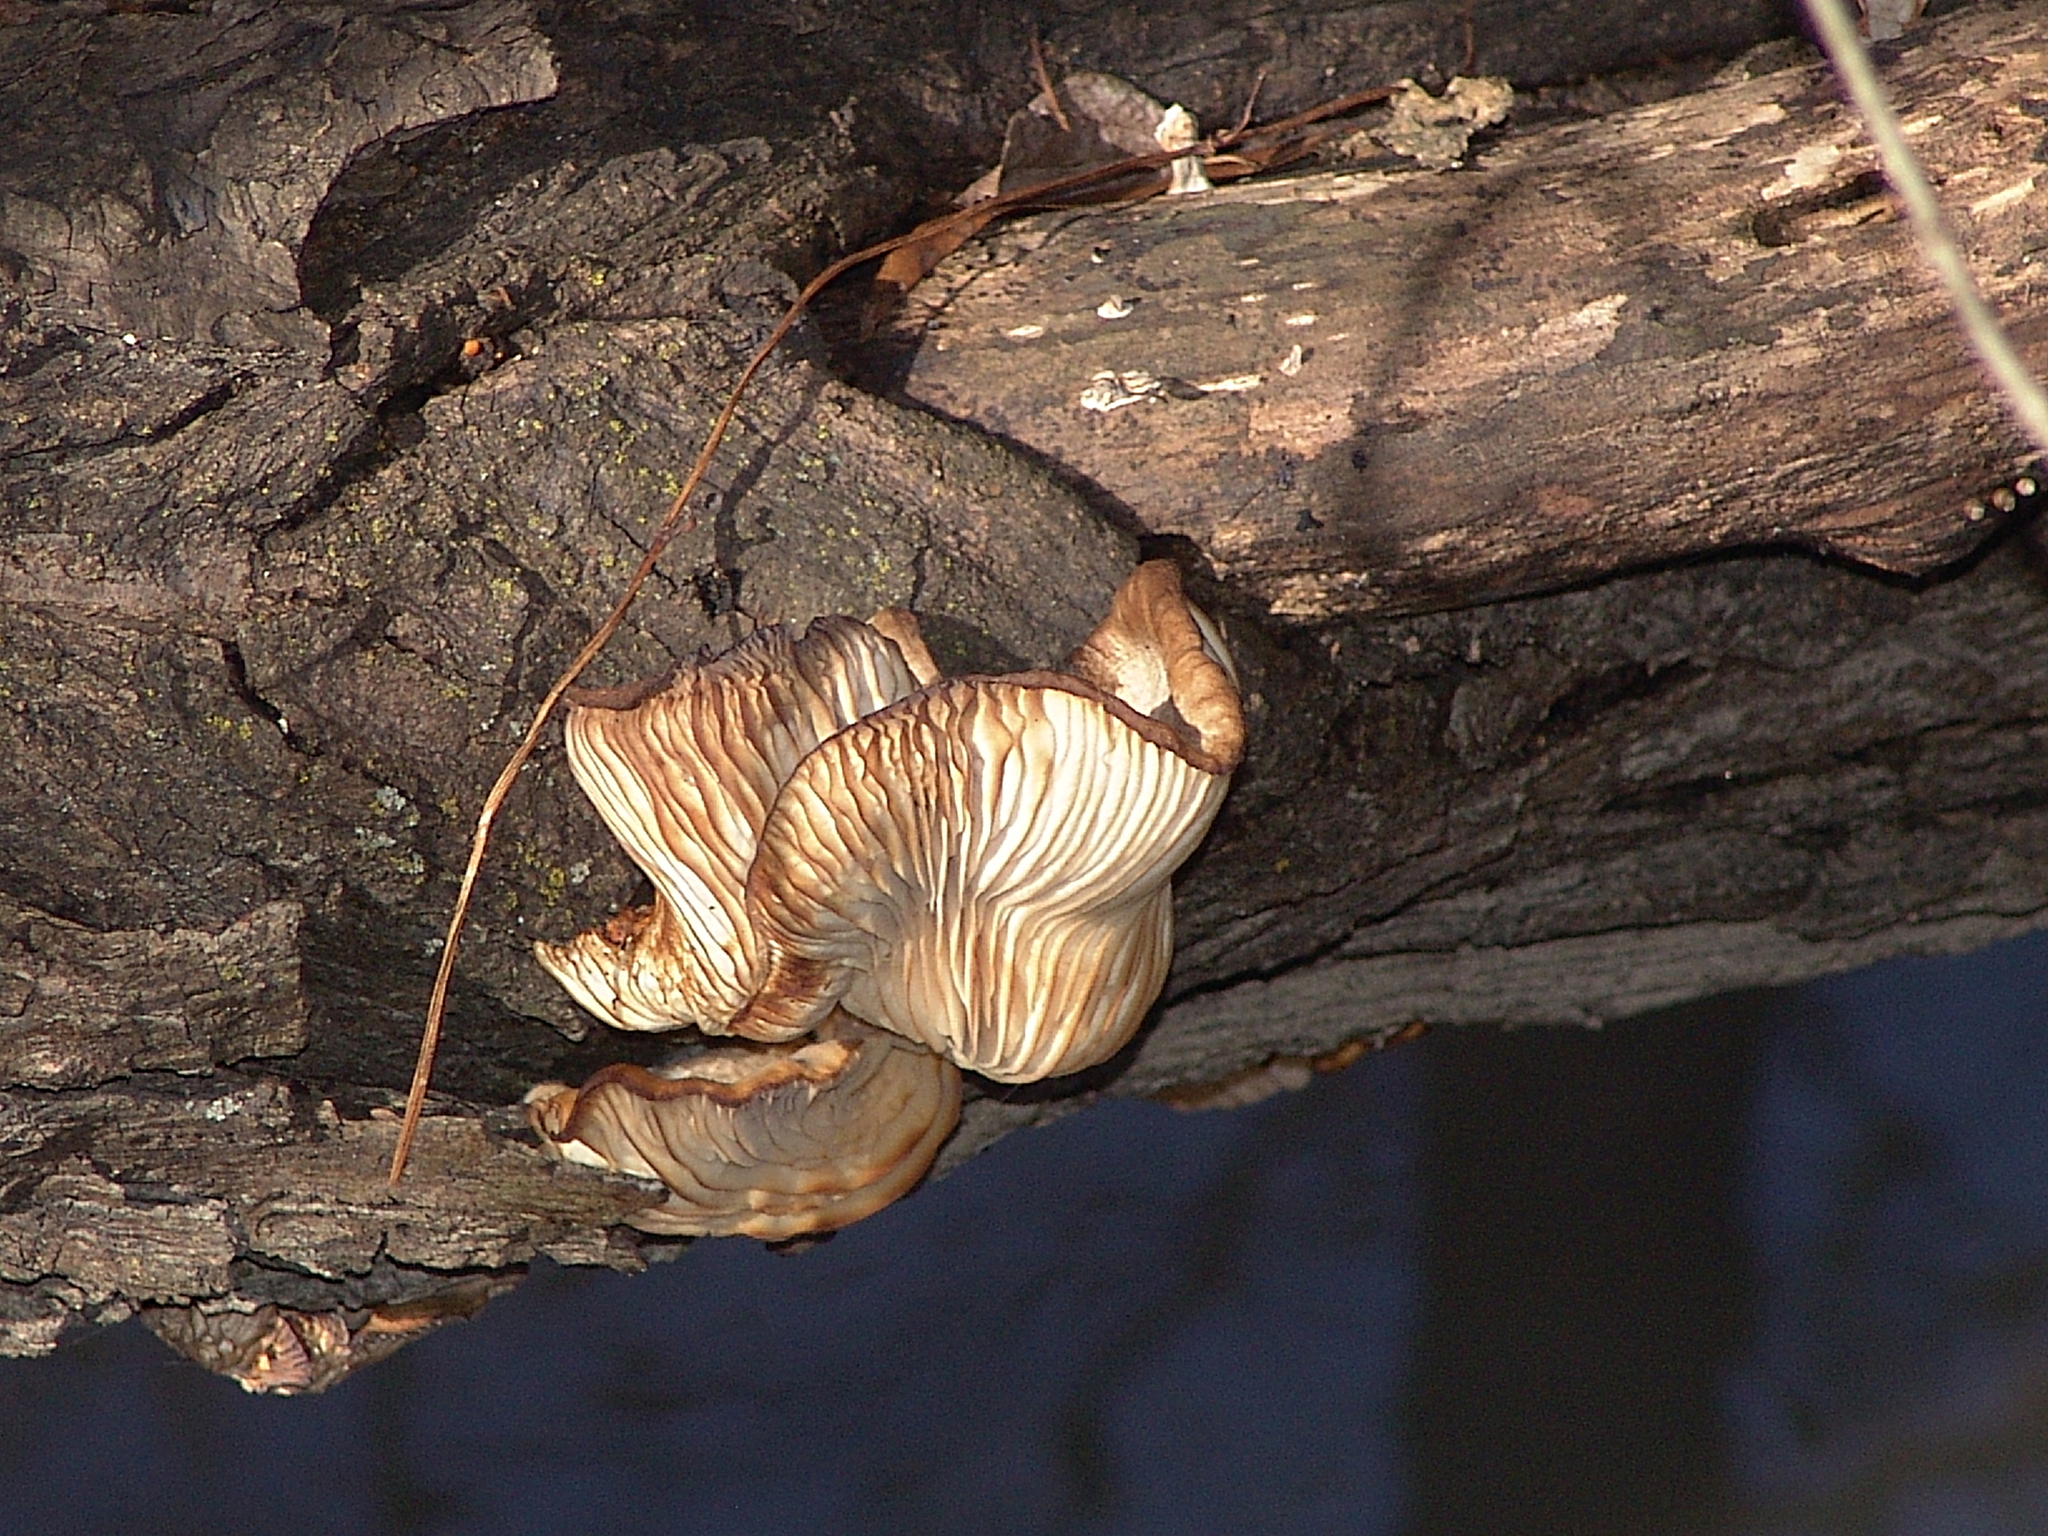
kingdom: Fungi
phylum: Basidiomycota
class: Agaricomycetes
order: Agaricales
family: Pleurotaceae
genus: Pleurotus
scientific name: Pleurotus ostreatus
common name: Oyster mushroom
